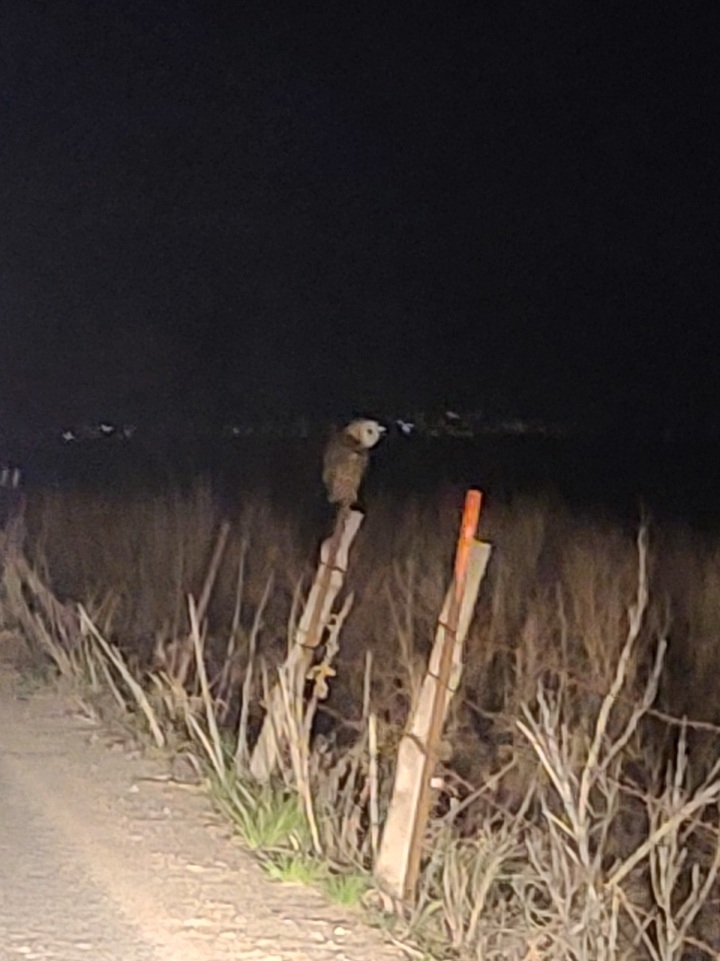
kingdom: Animalia
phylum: Chordata
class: Aves
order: Strigiformes
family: Tytonidae
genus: Tyto
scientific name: Tyto alba
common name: Barn owl
